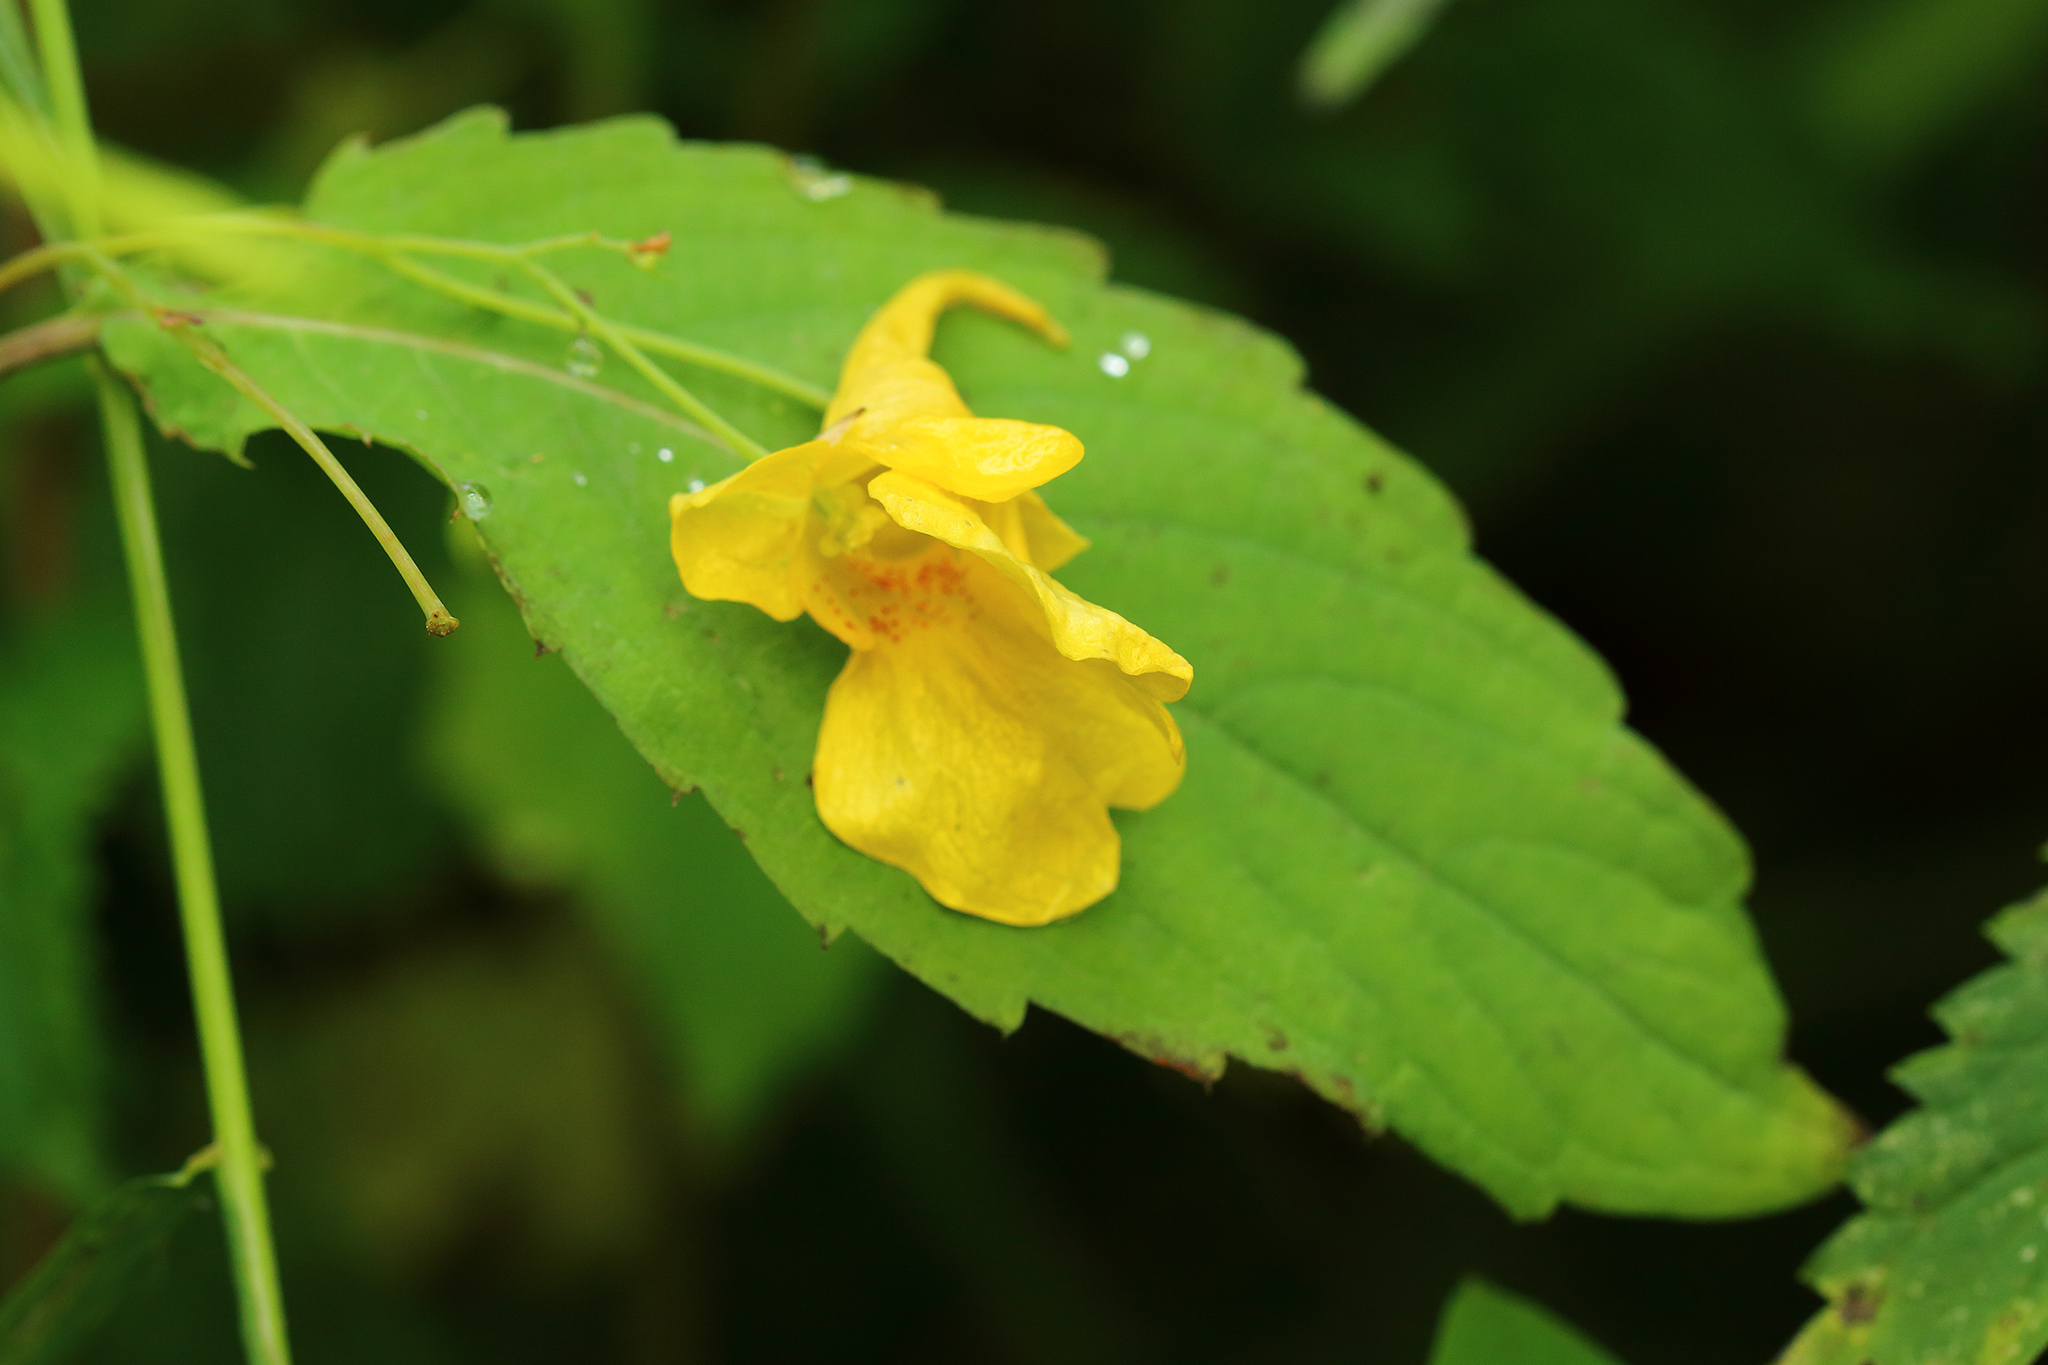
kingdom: Plantae
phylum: Tracheophyta
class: Magnoliopsida
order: Ericales
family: Balsaminaceae
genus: Impatiens
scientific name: Impatiens noli-tangere
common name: Touch-me-not balsam
